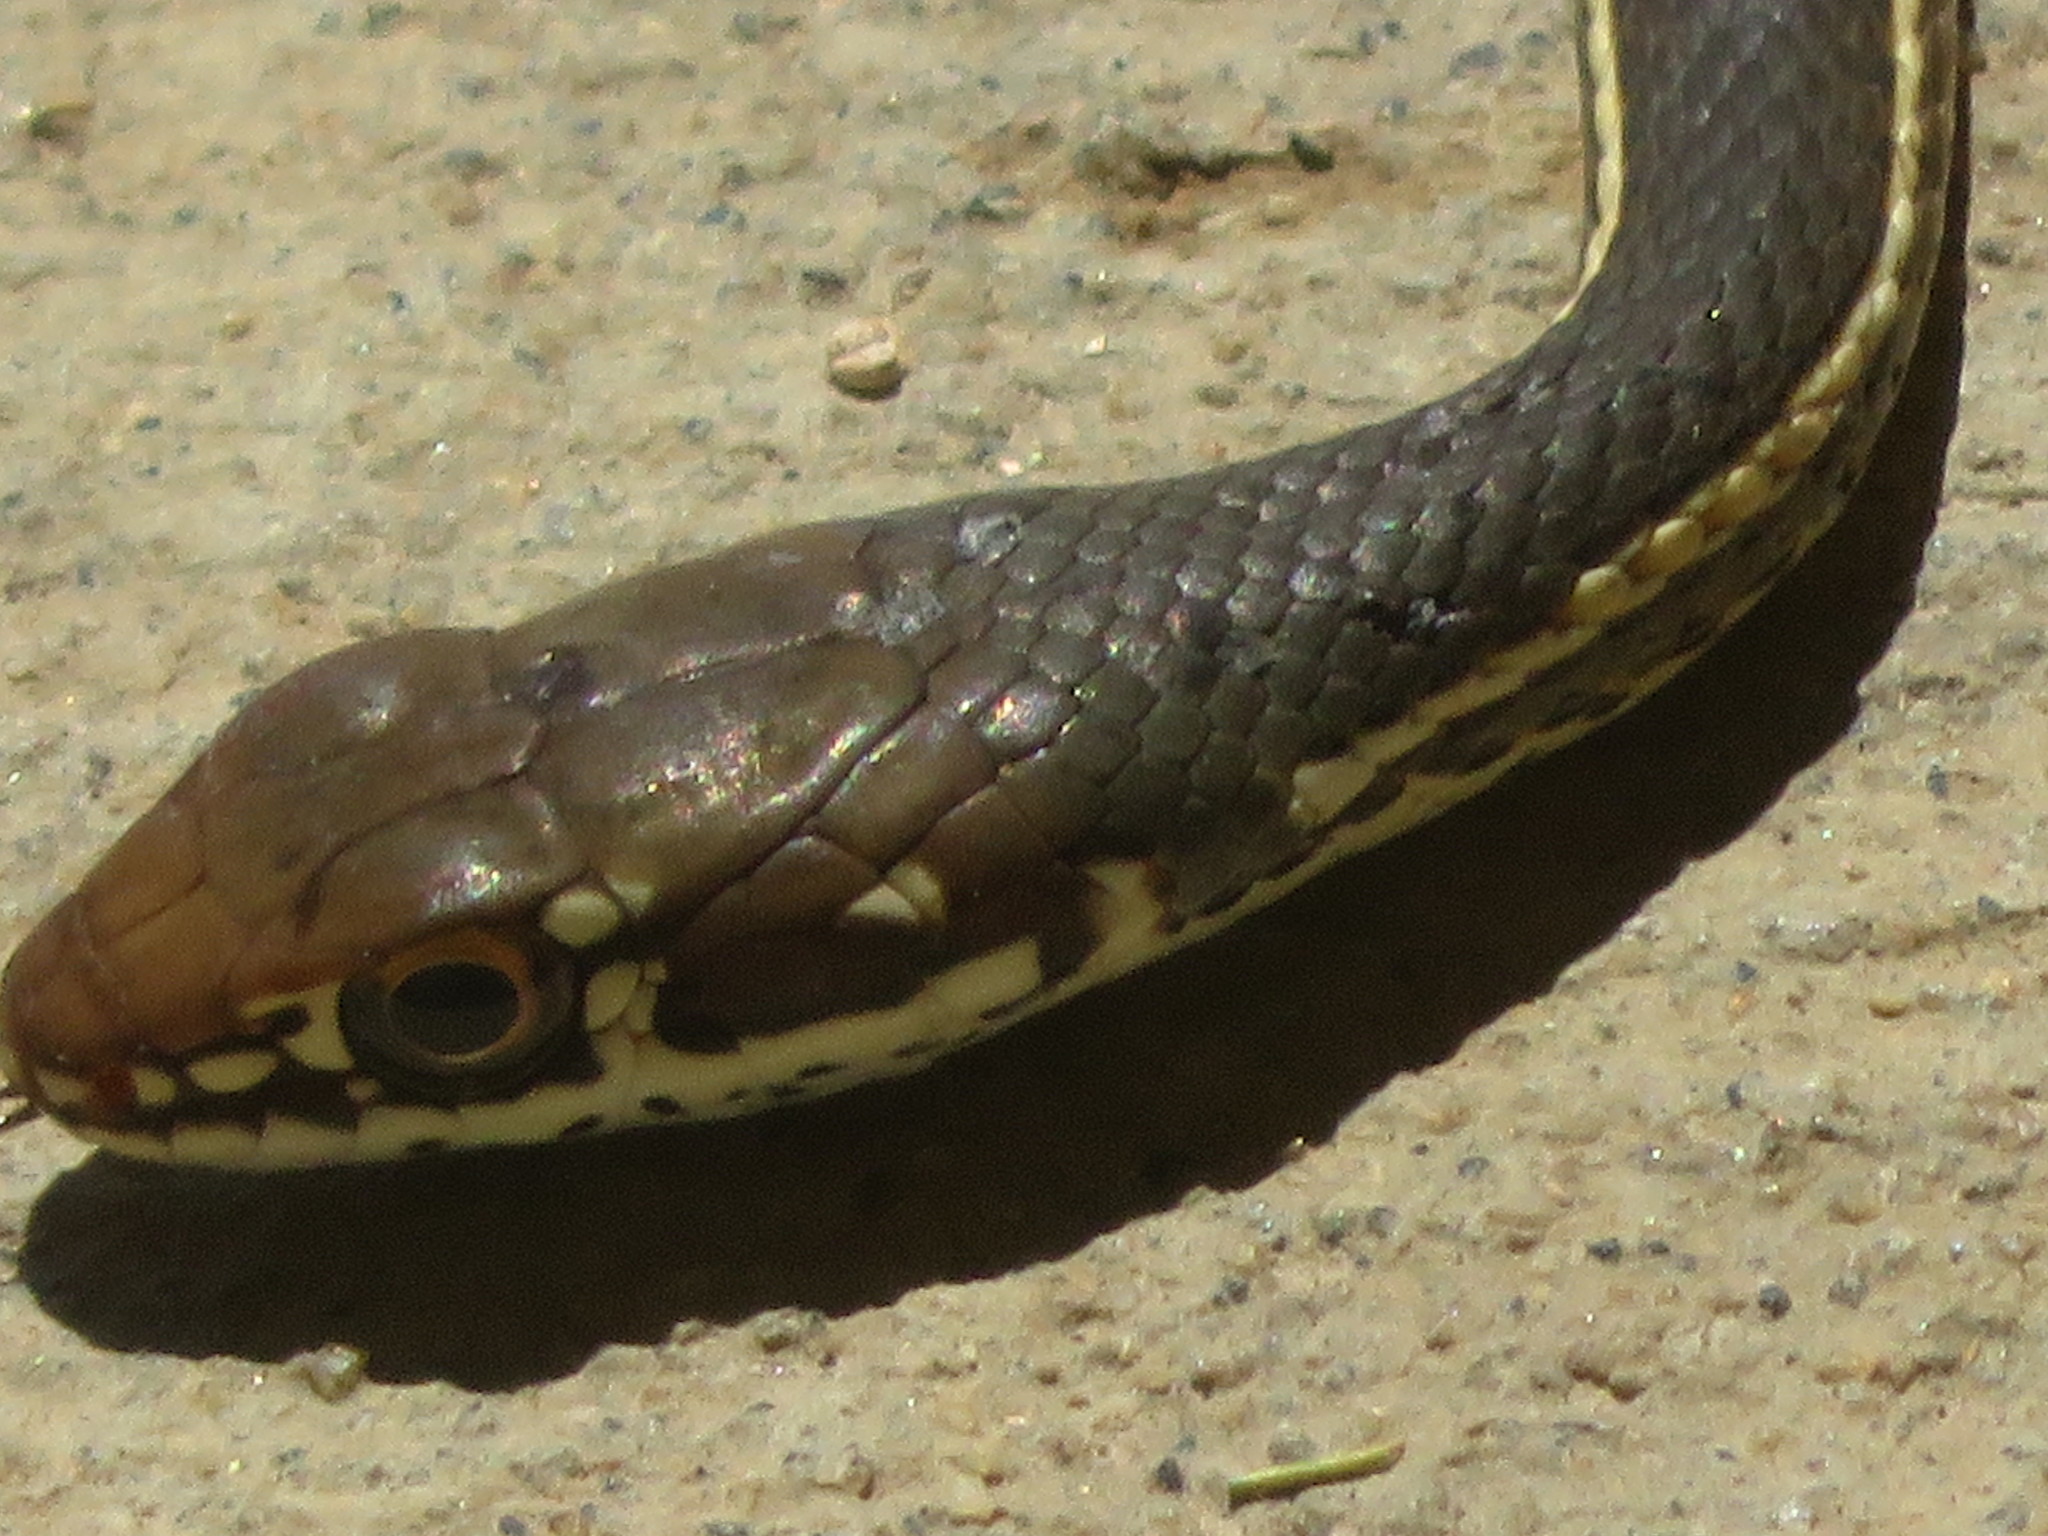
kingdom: Animalia
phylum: Chordata
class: Squamata
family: Colubridae
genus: Masticophis
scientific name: Masticophis lateralis
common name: Striped racer
